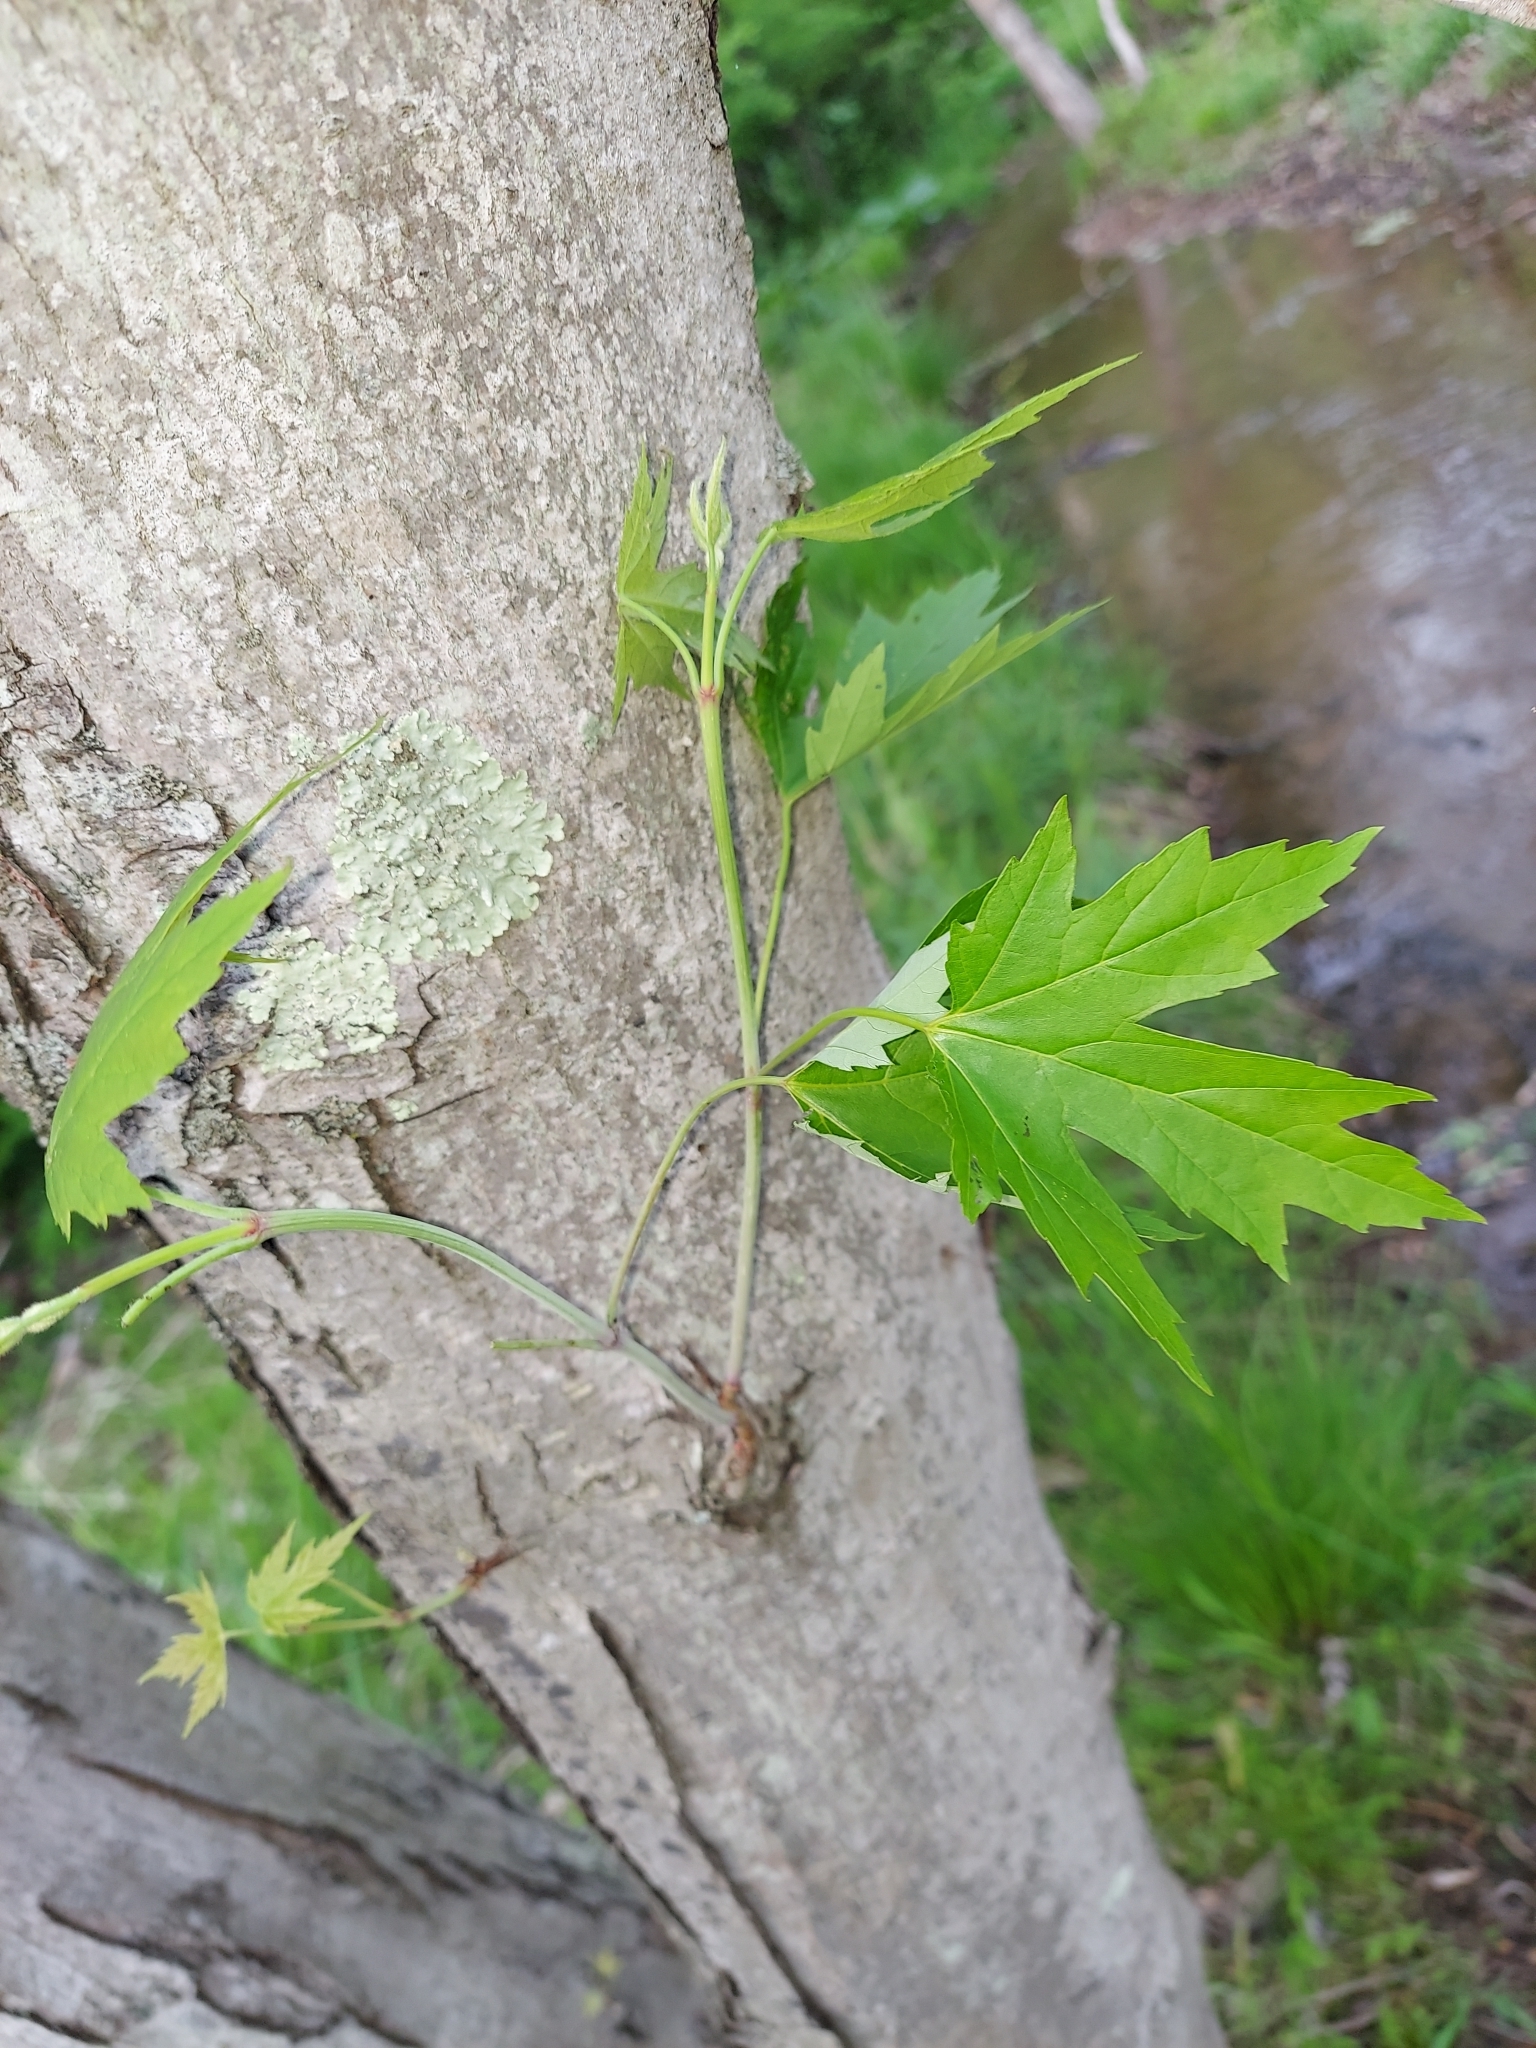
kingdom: Plantae
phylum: Tracheophyta
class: Magnoliopsida
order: Sapindales
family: Sapindaceae
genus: Acer
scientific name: Acer saccharinum
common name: Silver maple
